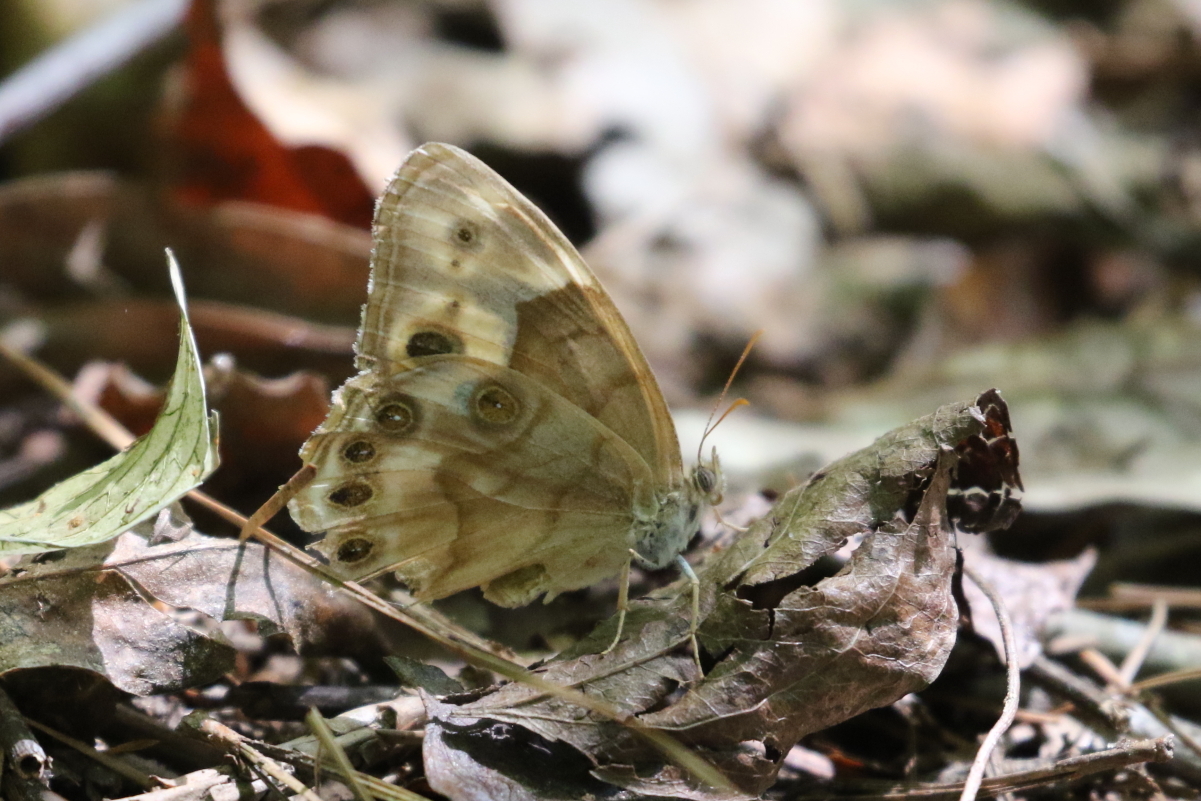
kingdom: Animalia
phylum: Arthropoda
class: Insecta
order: Lepidoptera
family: Nymphalidae
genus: Enodia
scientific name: Enodia portlandia
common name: Southern pearly-eye
